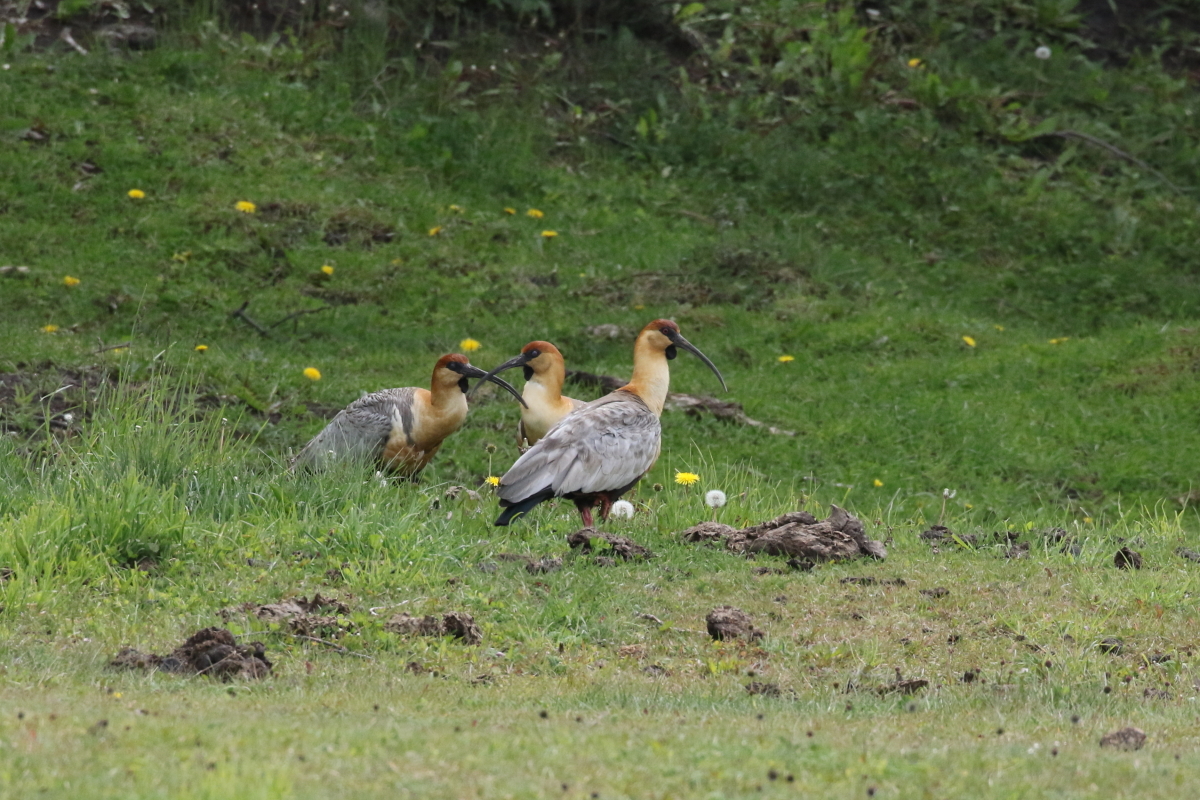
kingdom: Animalia
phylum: Chordata
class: Aves
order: Pelecaniformes
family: Threskiornithidae
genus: Theristicus
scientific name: Theristicus melanopis
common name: Black-faced ibis
